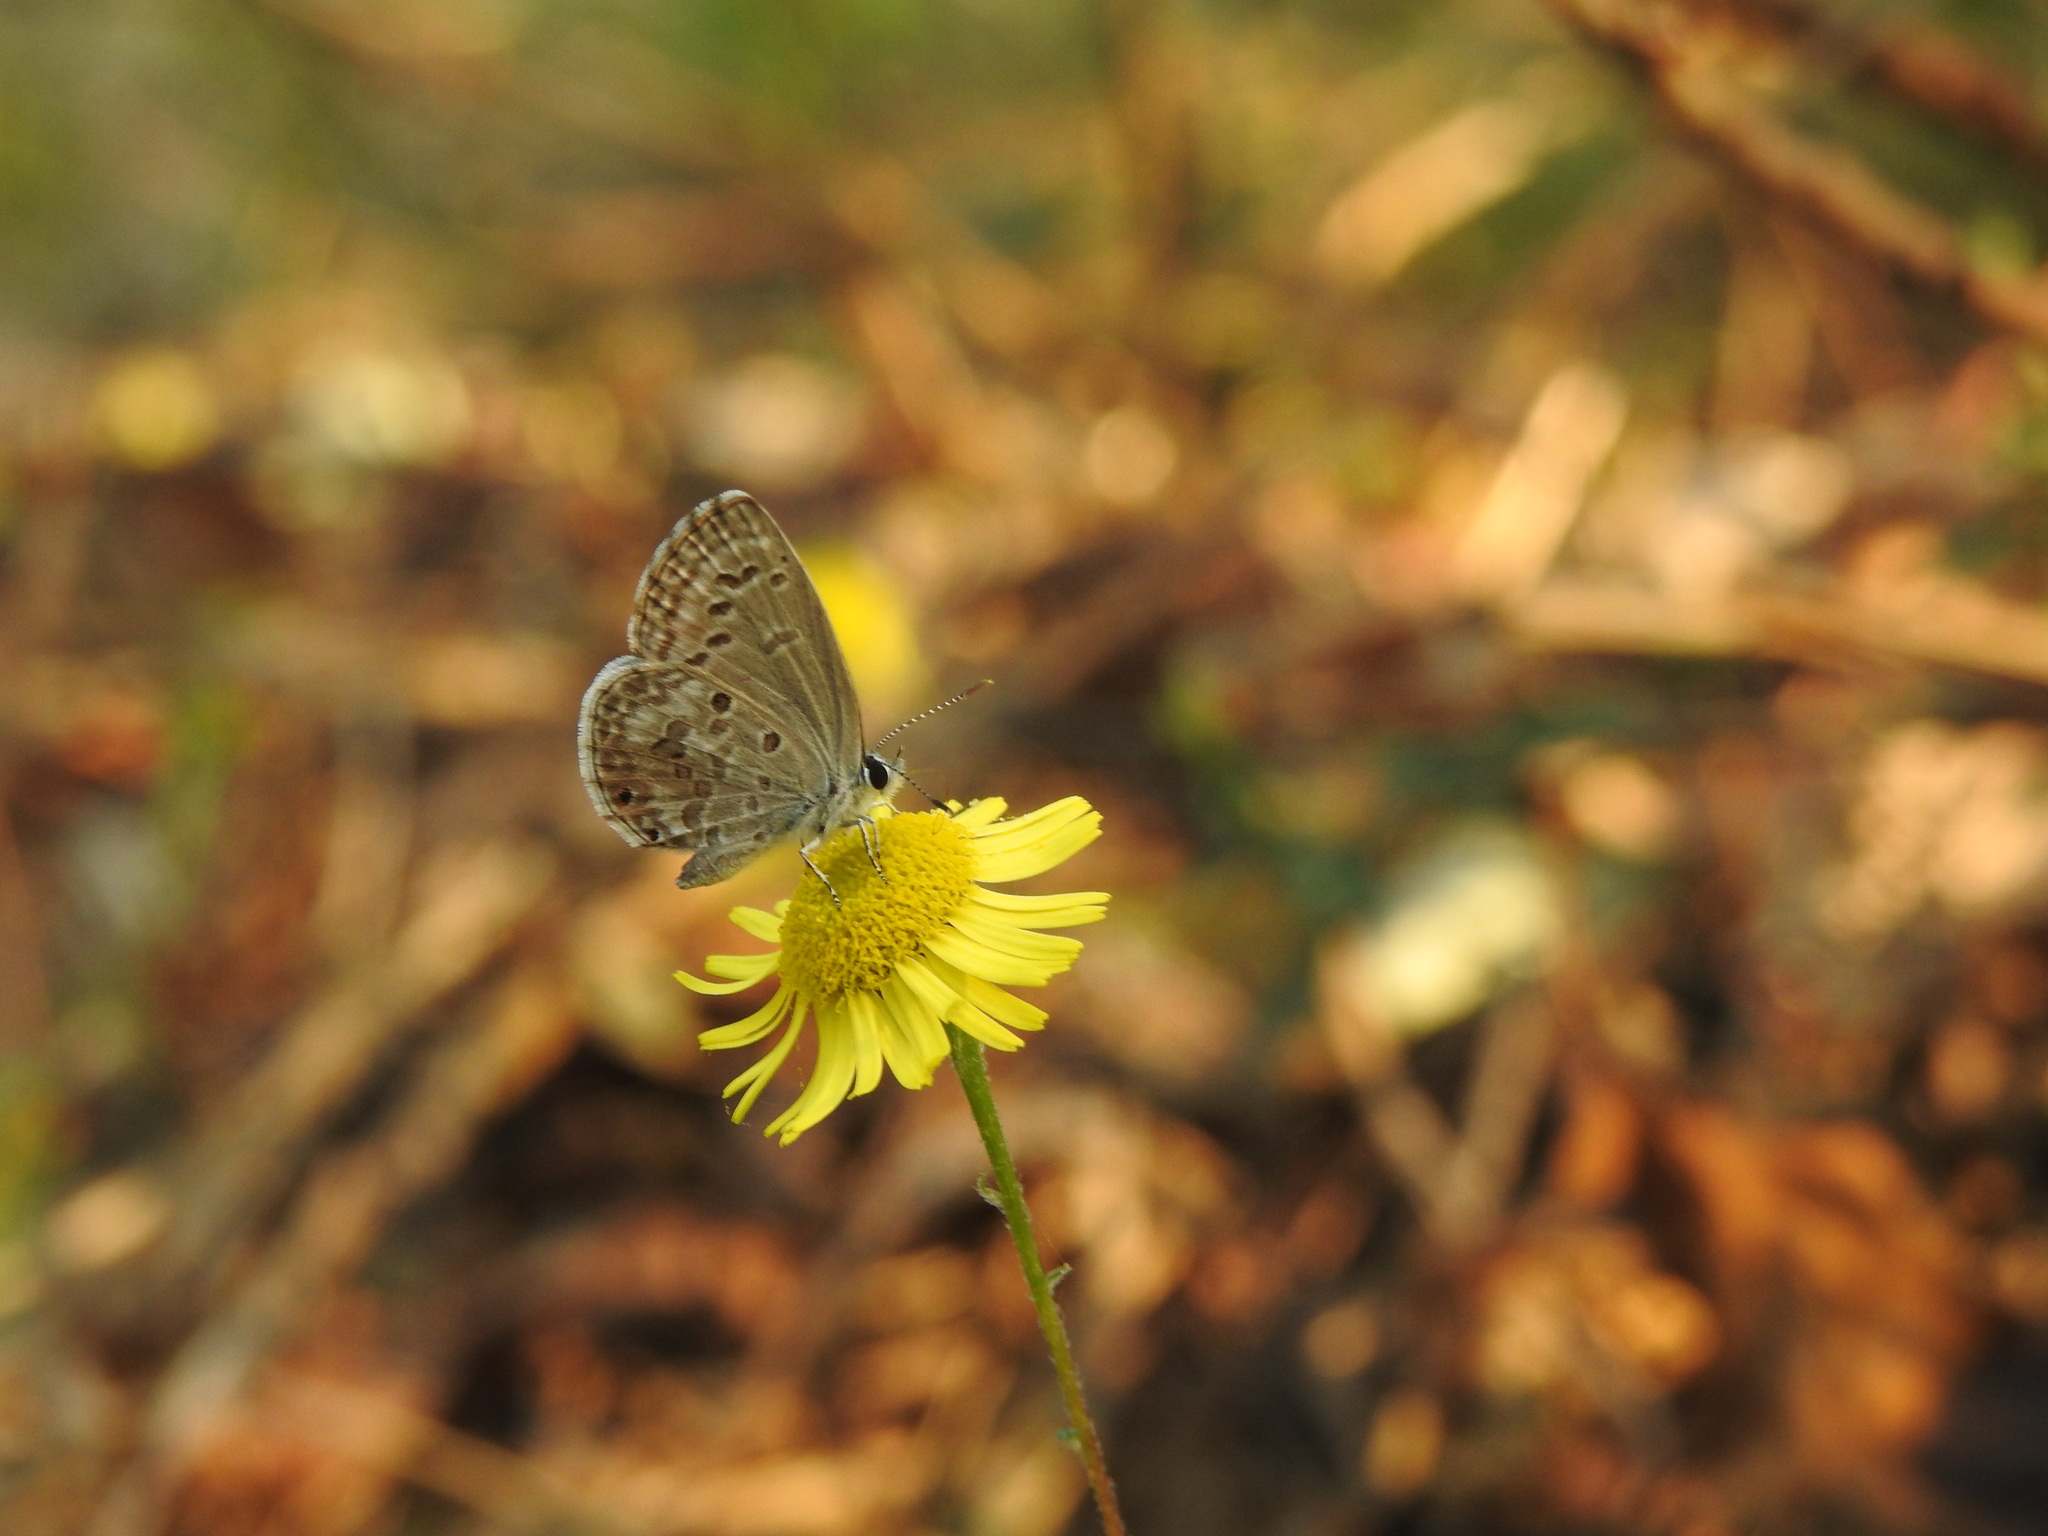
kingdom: Animalia
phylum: Arthropoda
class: Insecta
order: Lepidoptera
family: Lycaenidae
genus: Chilades
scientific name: Chilades laius
